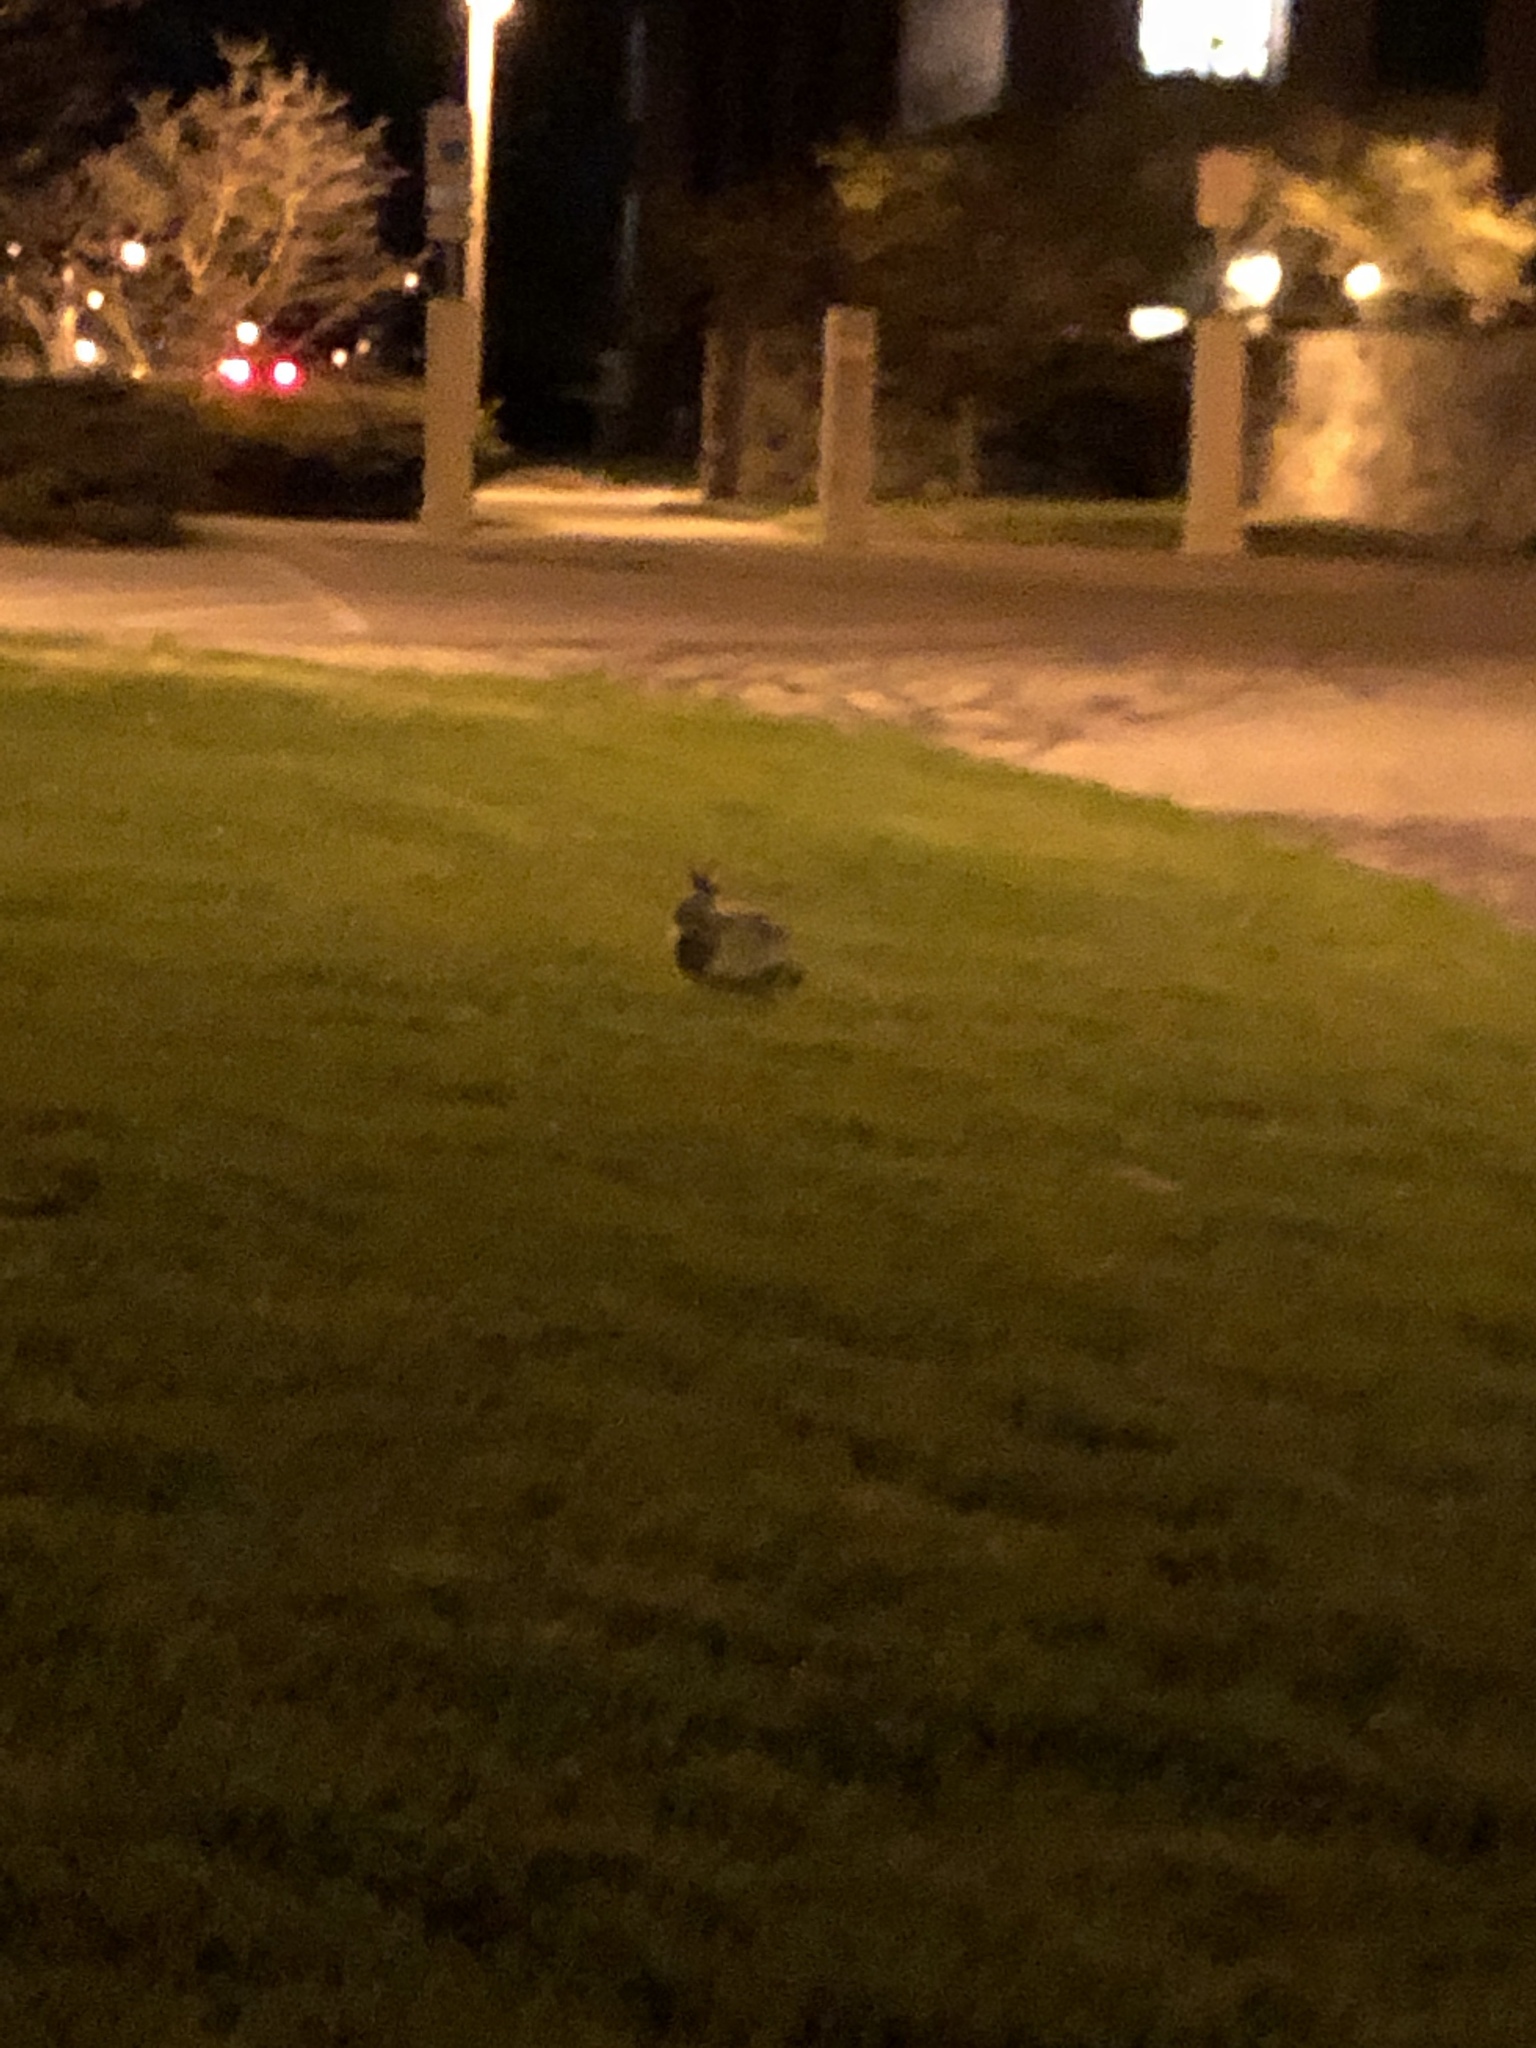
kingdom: Animalia
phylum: Chordata
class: Mammalia
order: Lagomorpha
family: Leporidae
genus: Sylvilagus
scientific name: Sylvilagus floridanus
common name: Eastern cottontail
